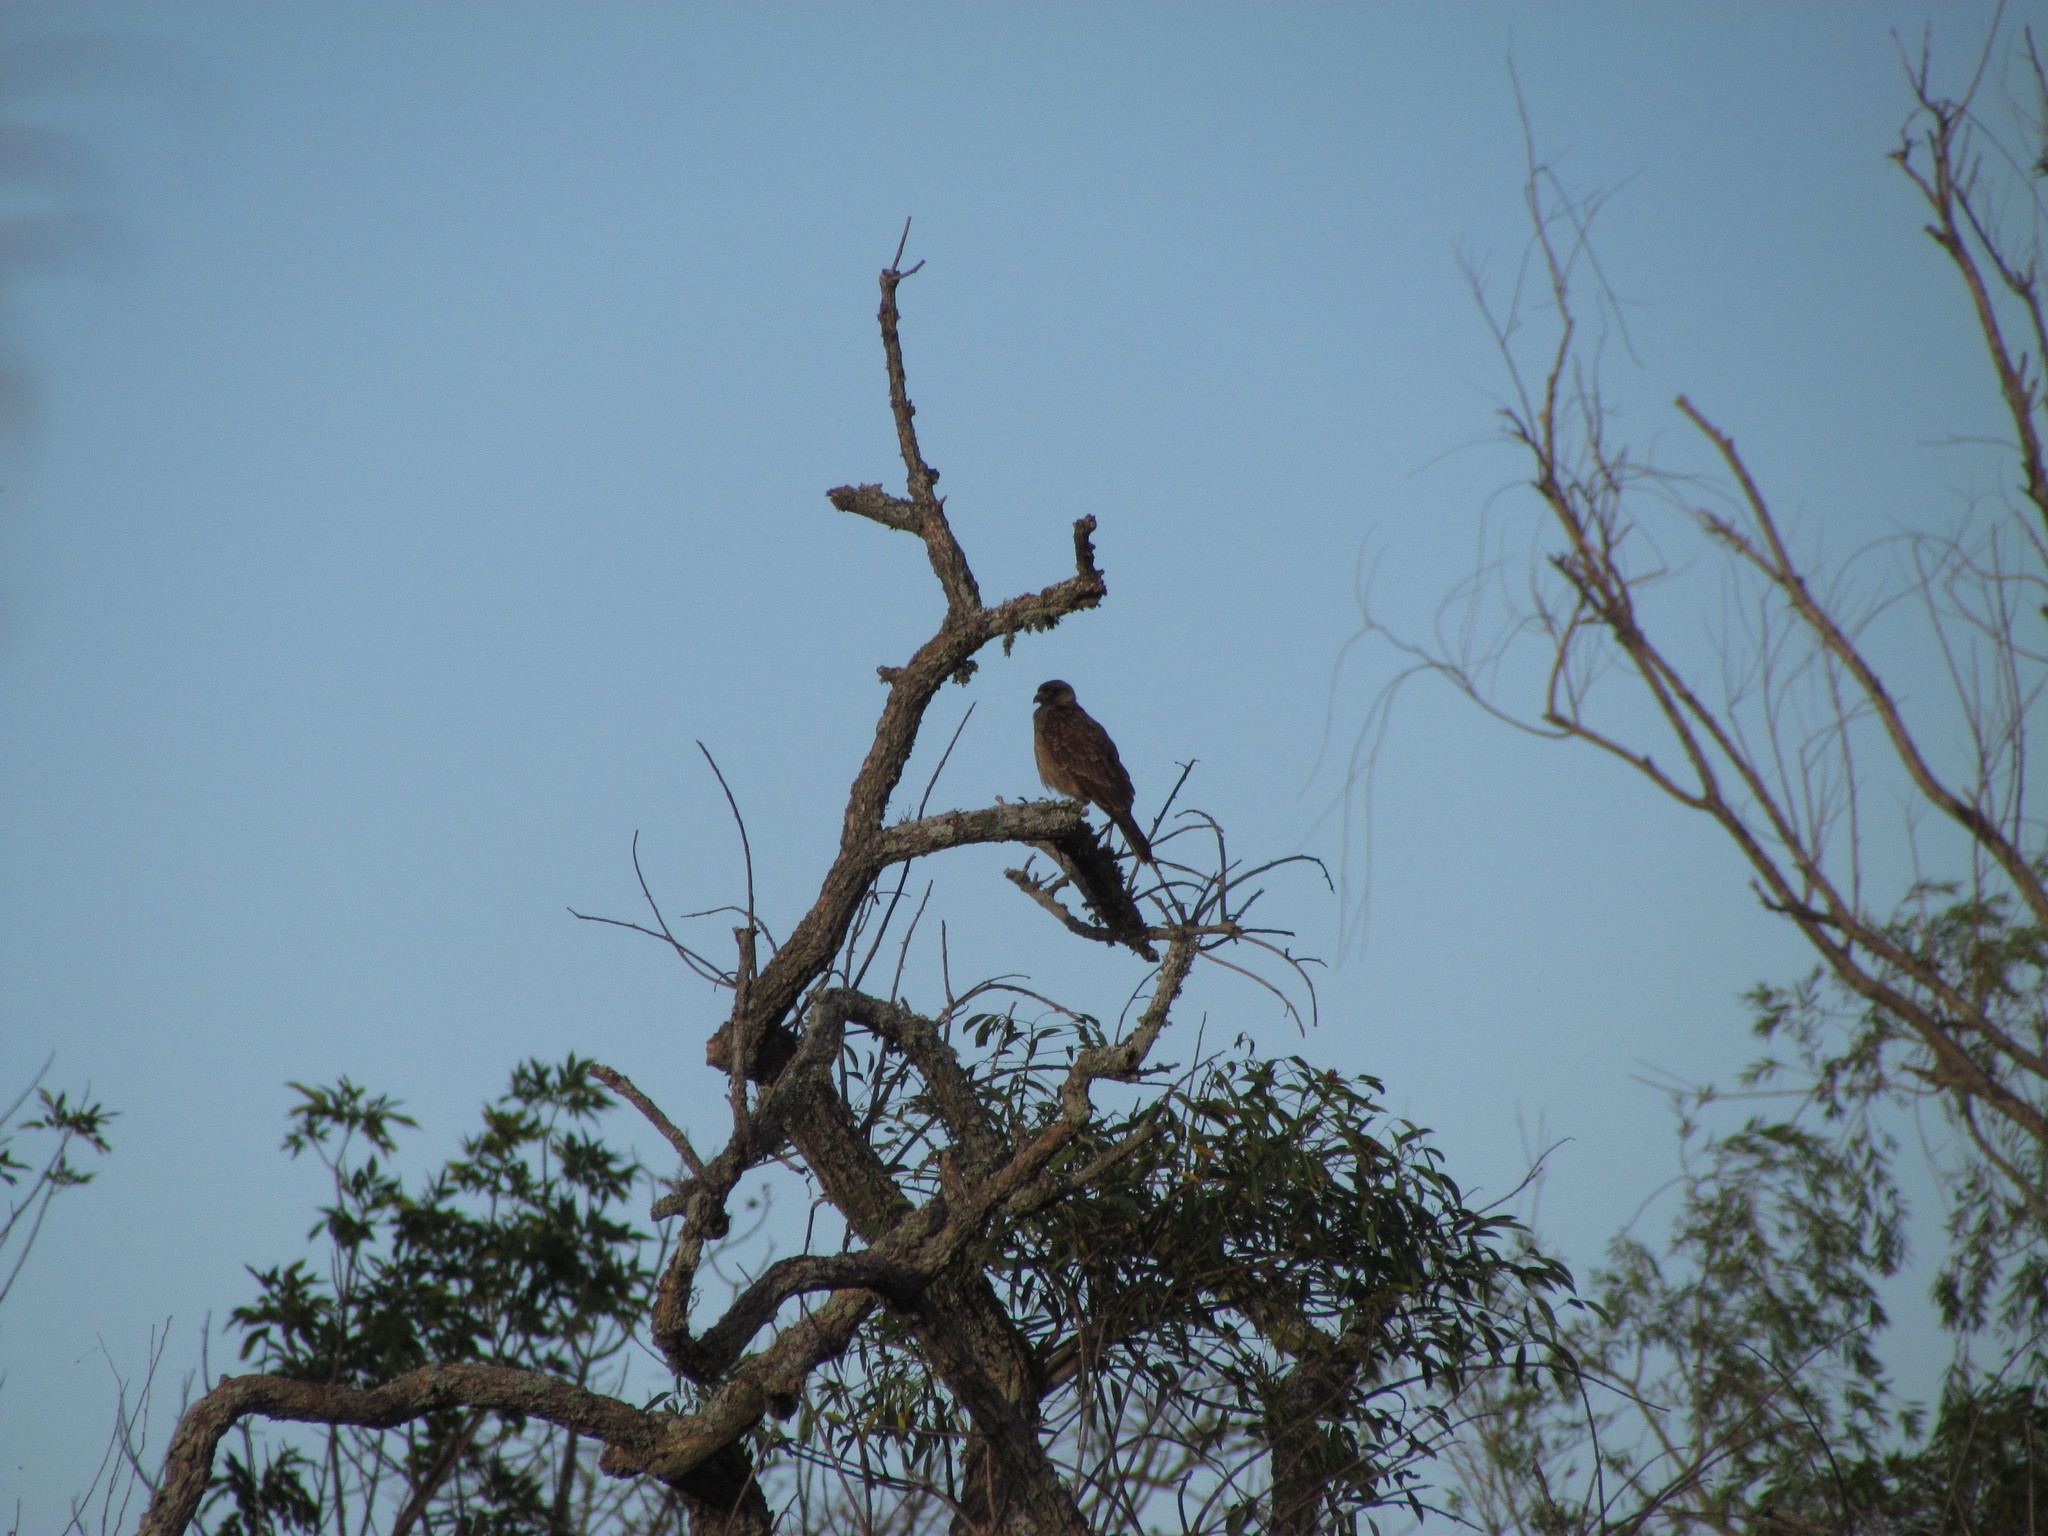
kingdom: Animalia
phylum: Chordata
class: Aves
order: Falconiformes
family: Falconidae
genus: Daptrius
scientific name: Daptrius
